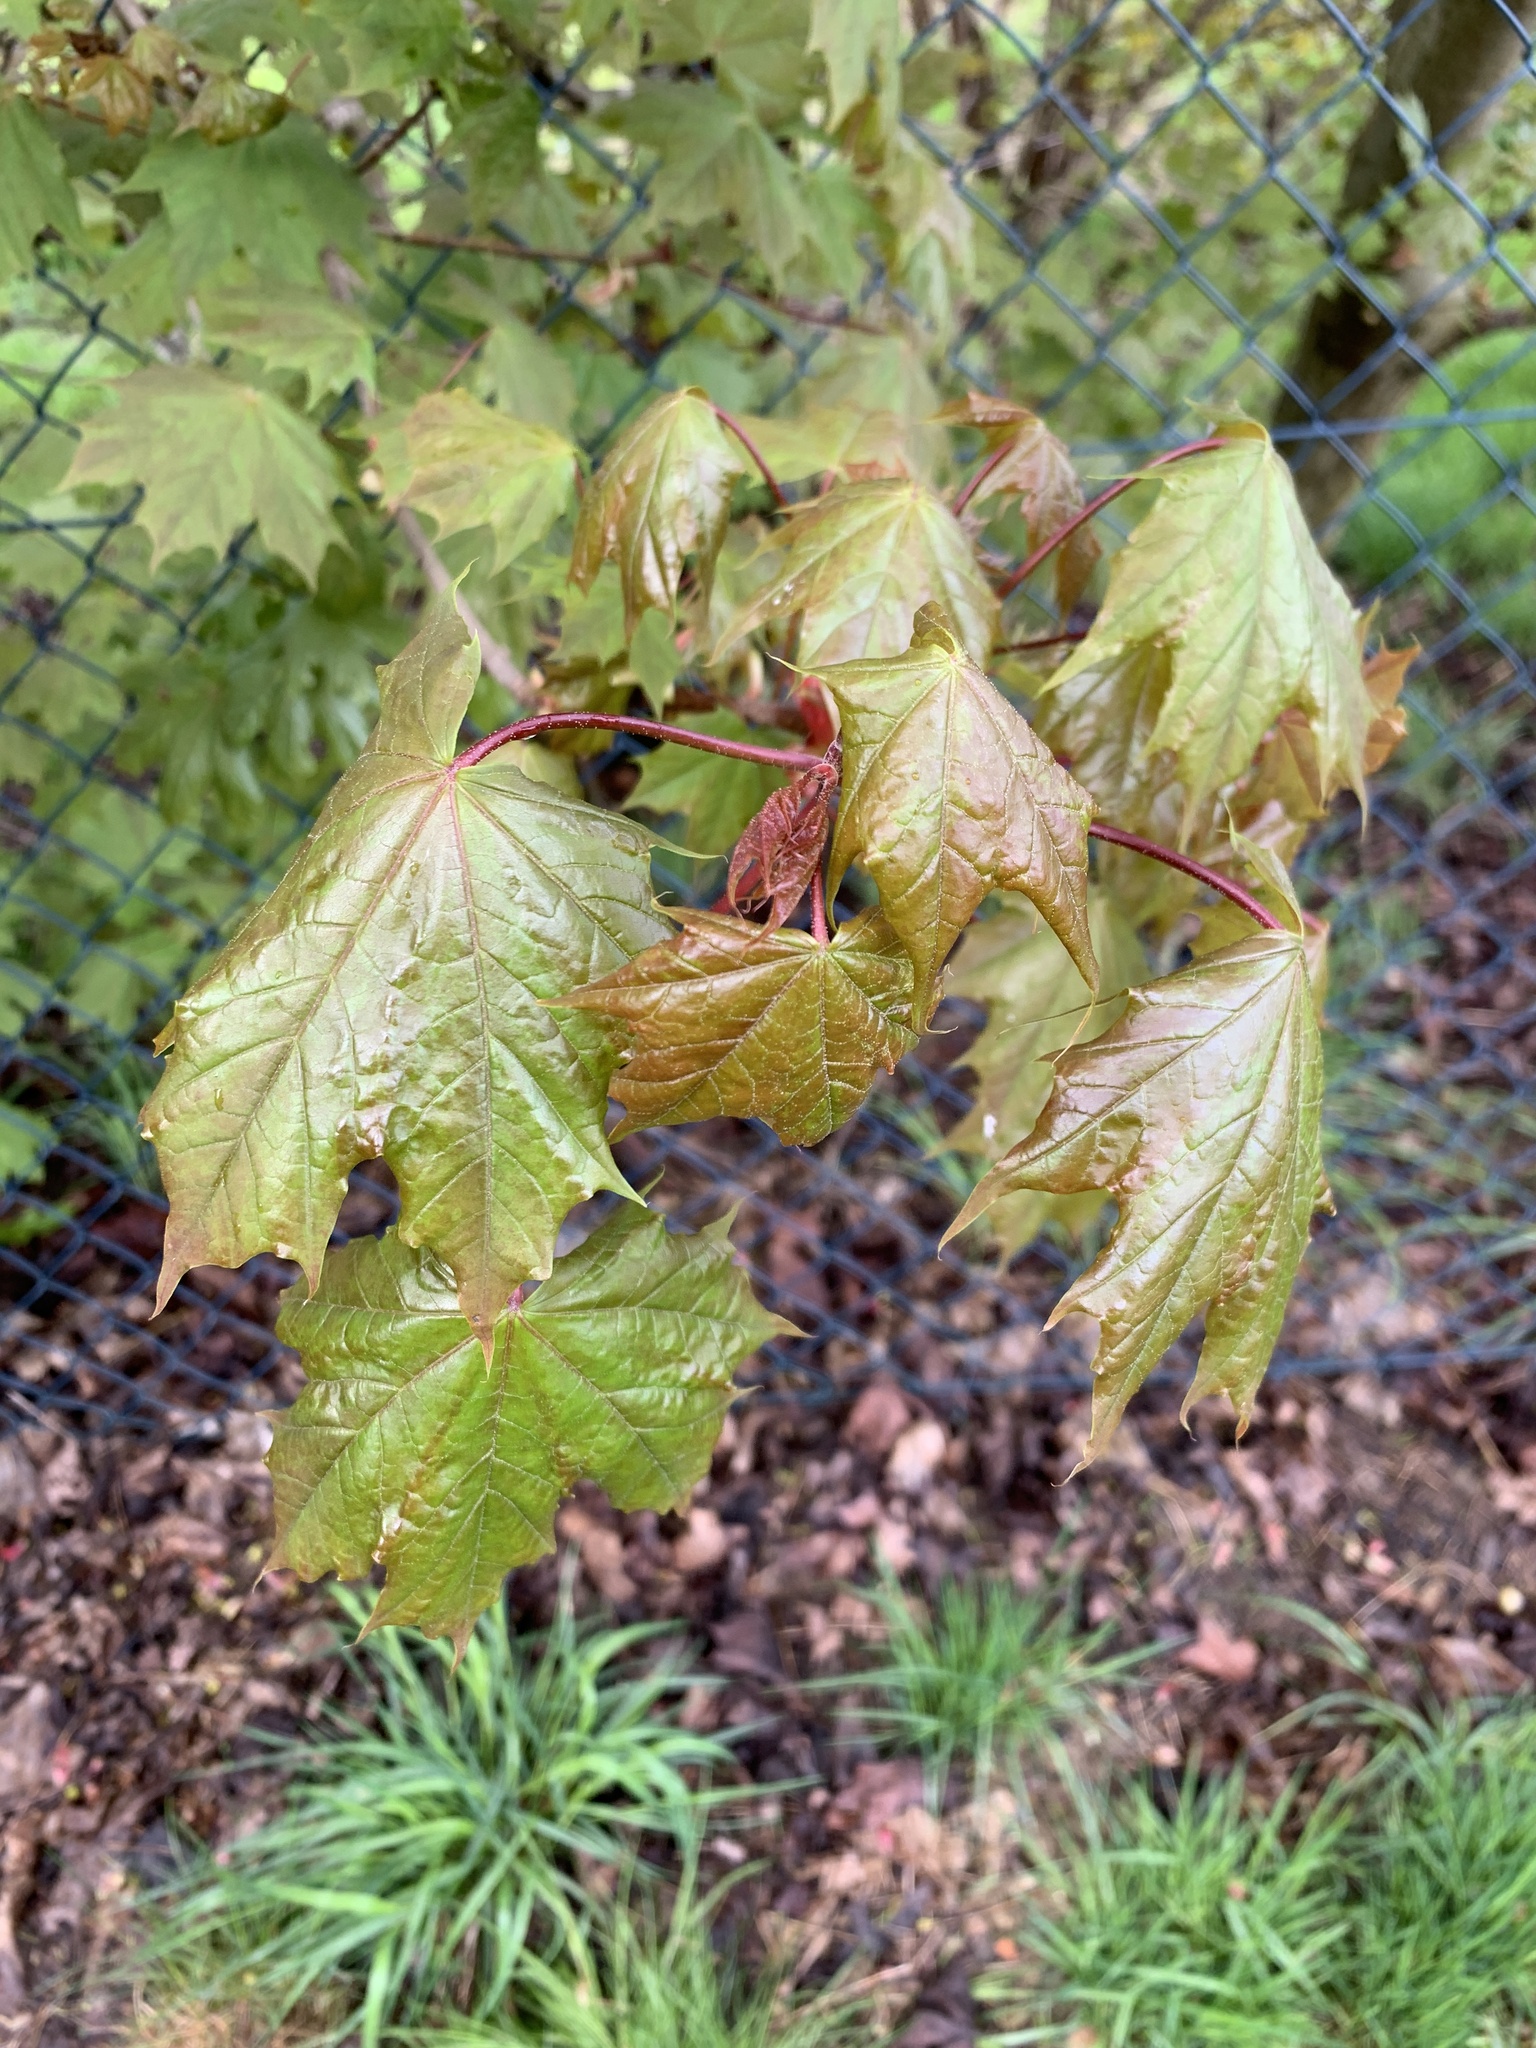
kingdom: Plantae
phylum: Tracheophyta
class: Magnoliopsida
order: Sapindales
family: Sapindaceae
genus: Acer
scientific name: Acer platanoides
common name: Norway maple
